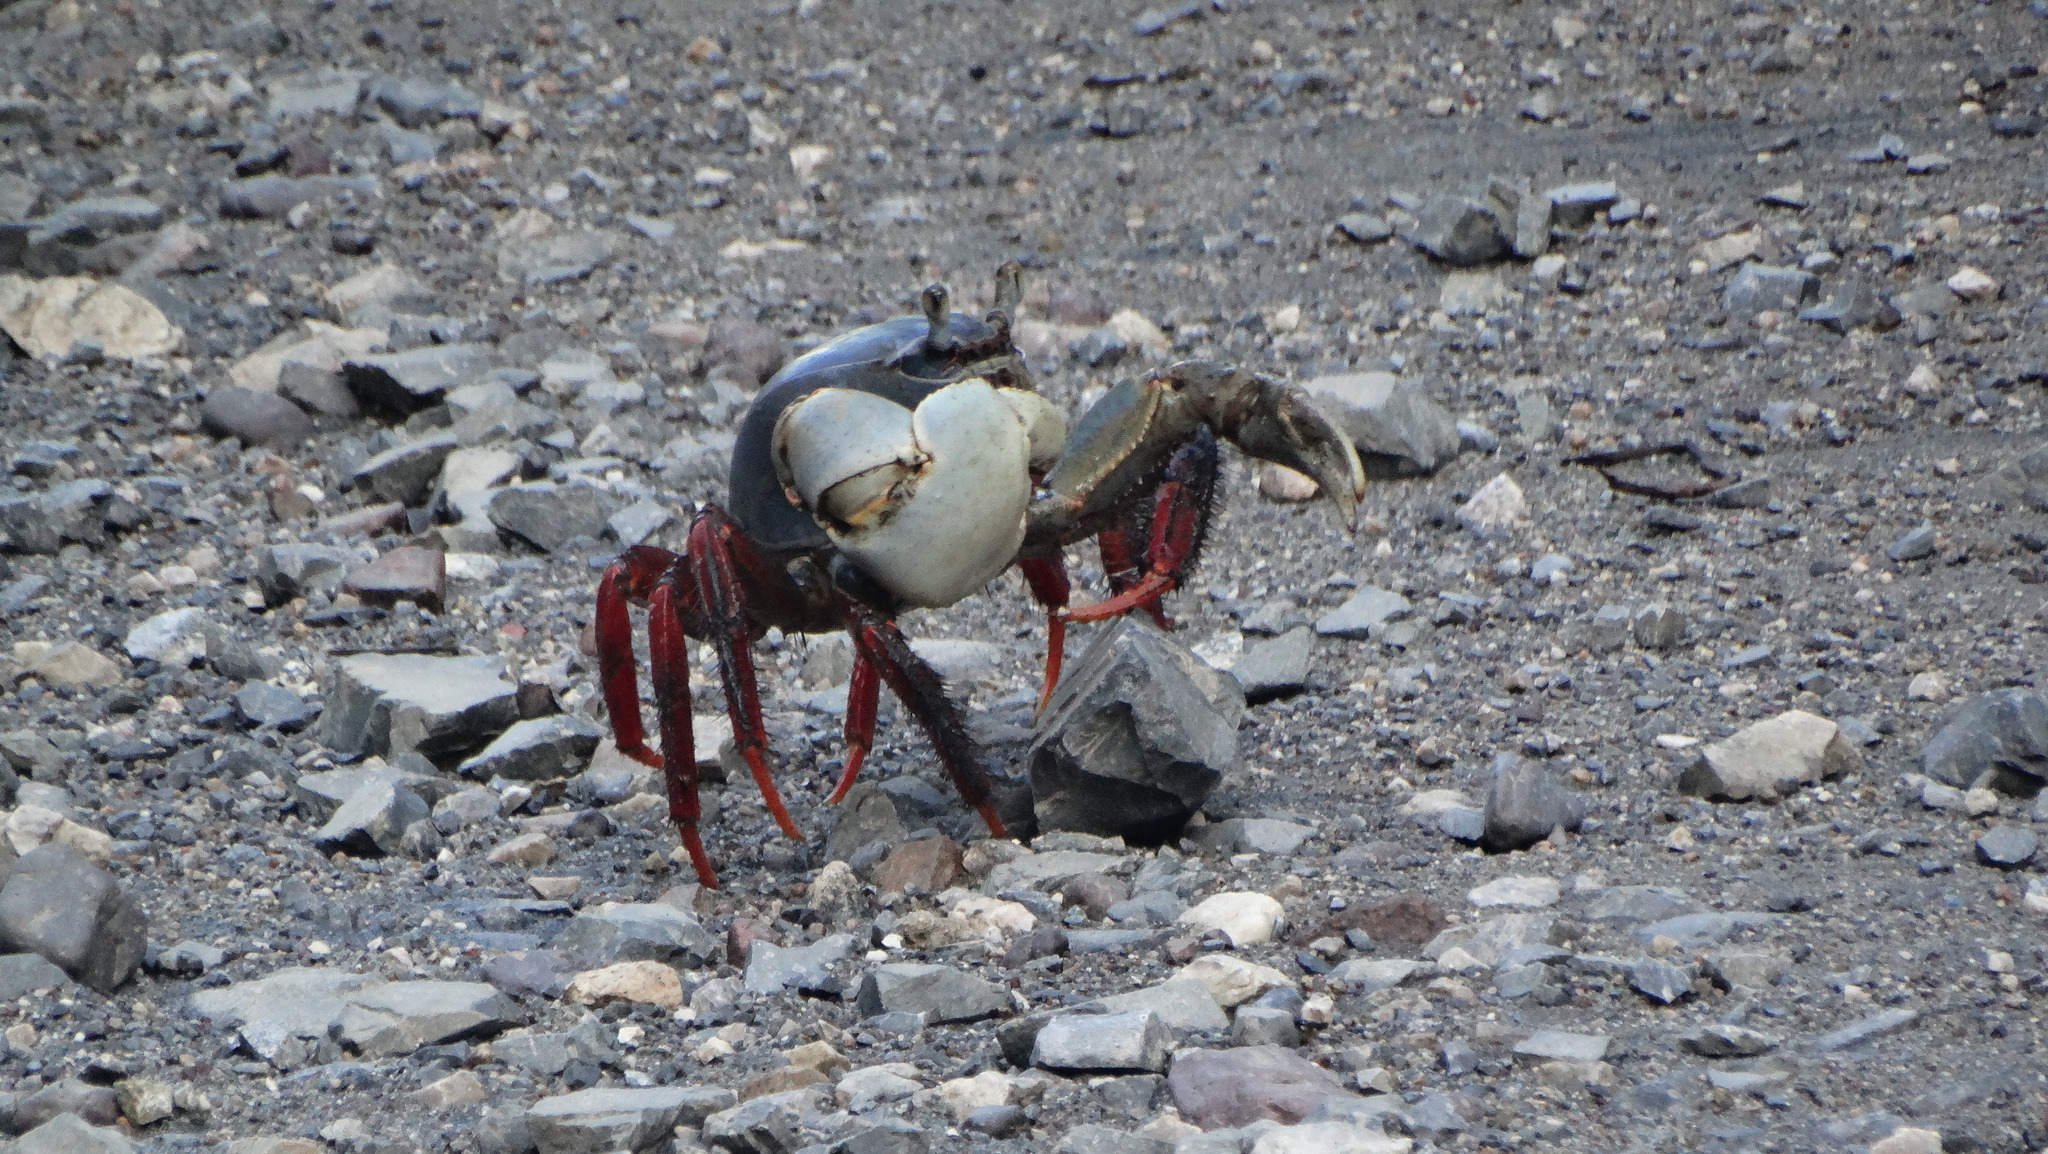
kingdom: Animalia
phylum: Arthropoda
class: Malacostraca
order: Decapoda
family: Gecarcinidae
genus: Cardisoma
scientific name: Cardisoma crassum
